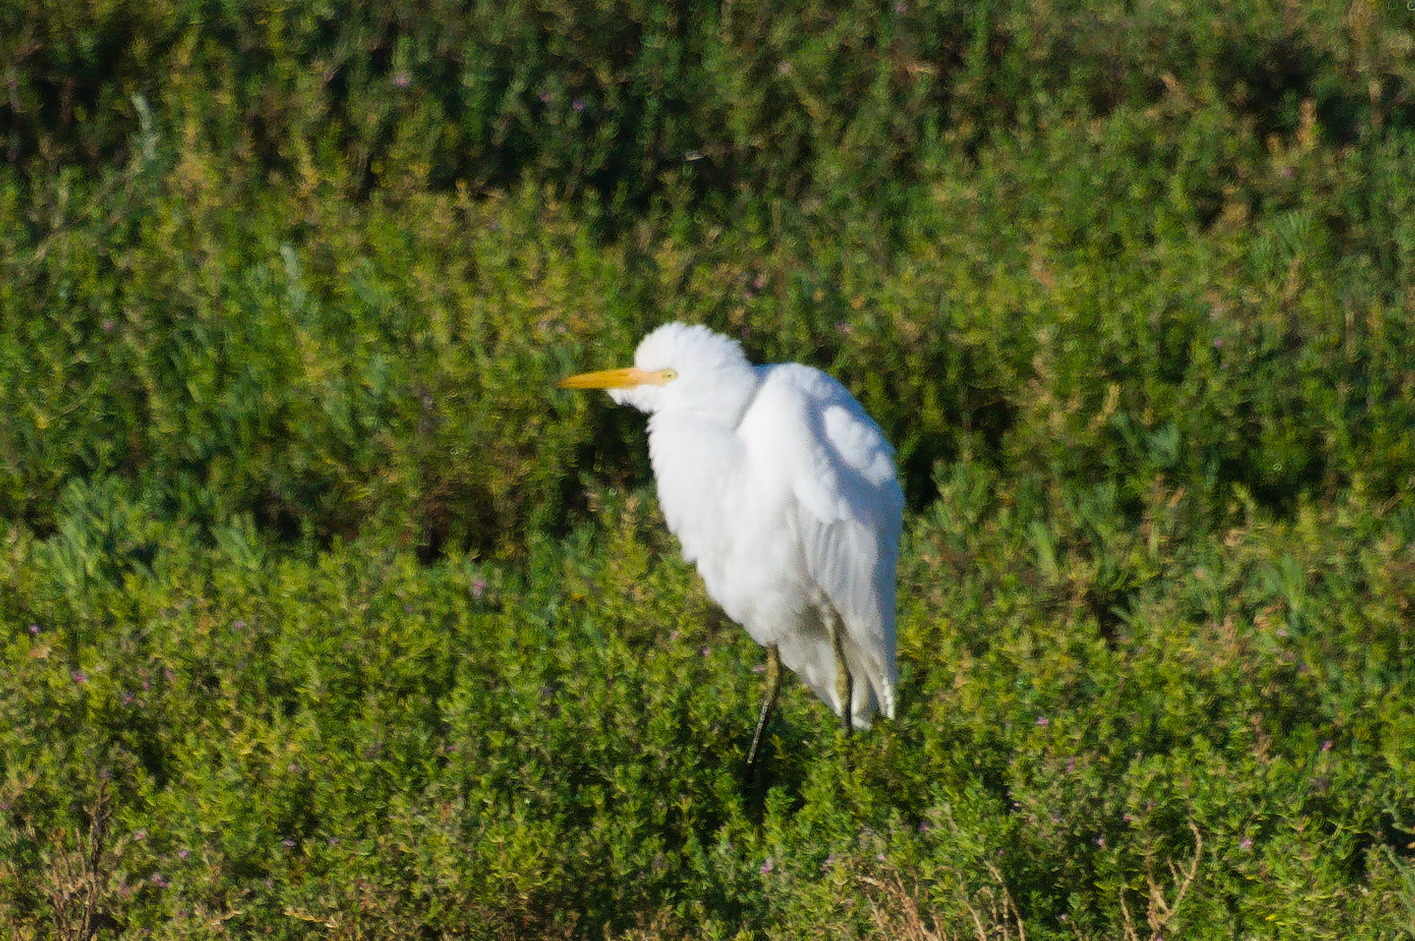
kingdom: Animalia
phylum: Chordata
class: Aves
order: Pelecaniformes
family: Ardeidae
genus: Bubulcus
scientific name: Bubulcus ibis
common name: Cattle egret
